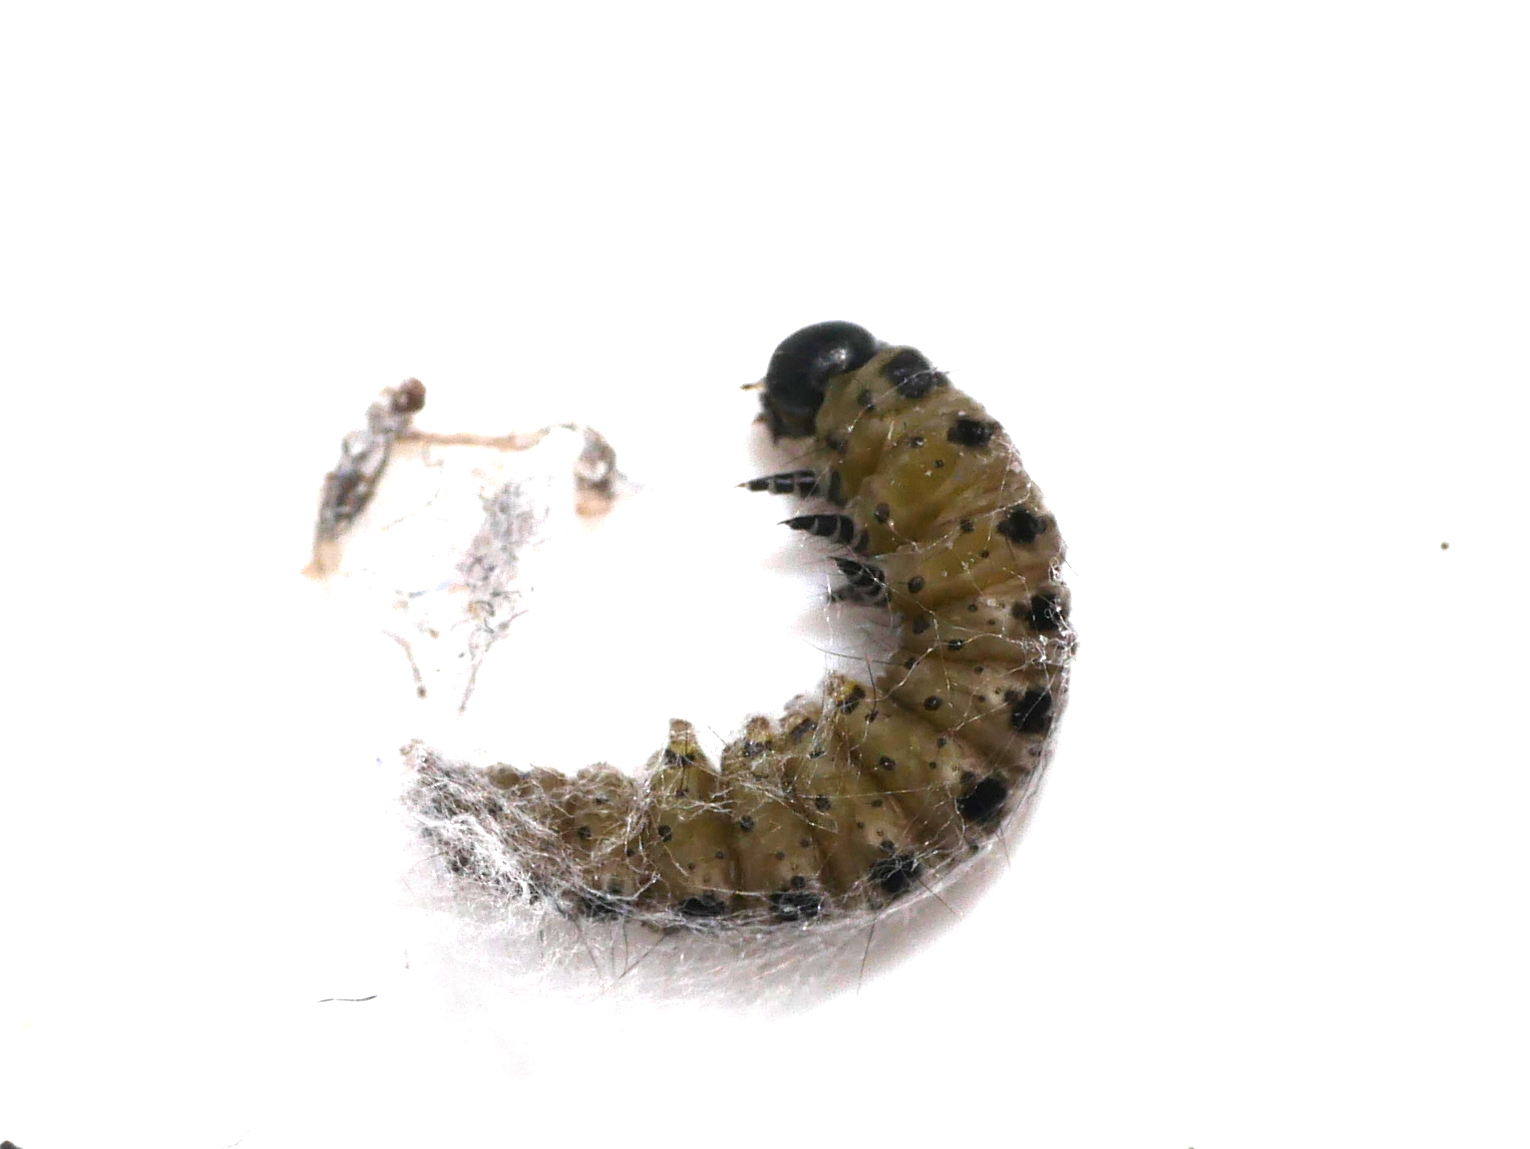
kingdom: Animalia
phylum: Arthropoda
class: Insecta
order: Lepidoptera
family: Yponomeutidae
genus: Yponomeuta
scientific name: Yponomeuta padella
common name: Orchard ermine
